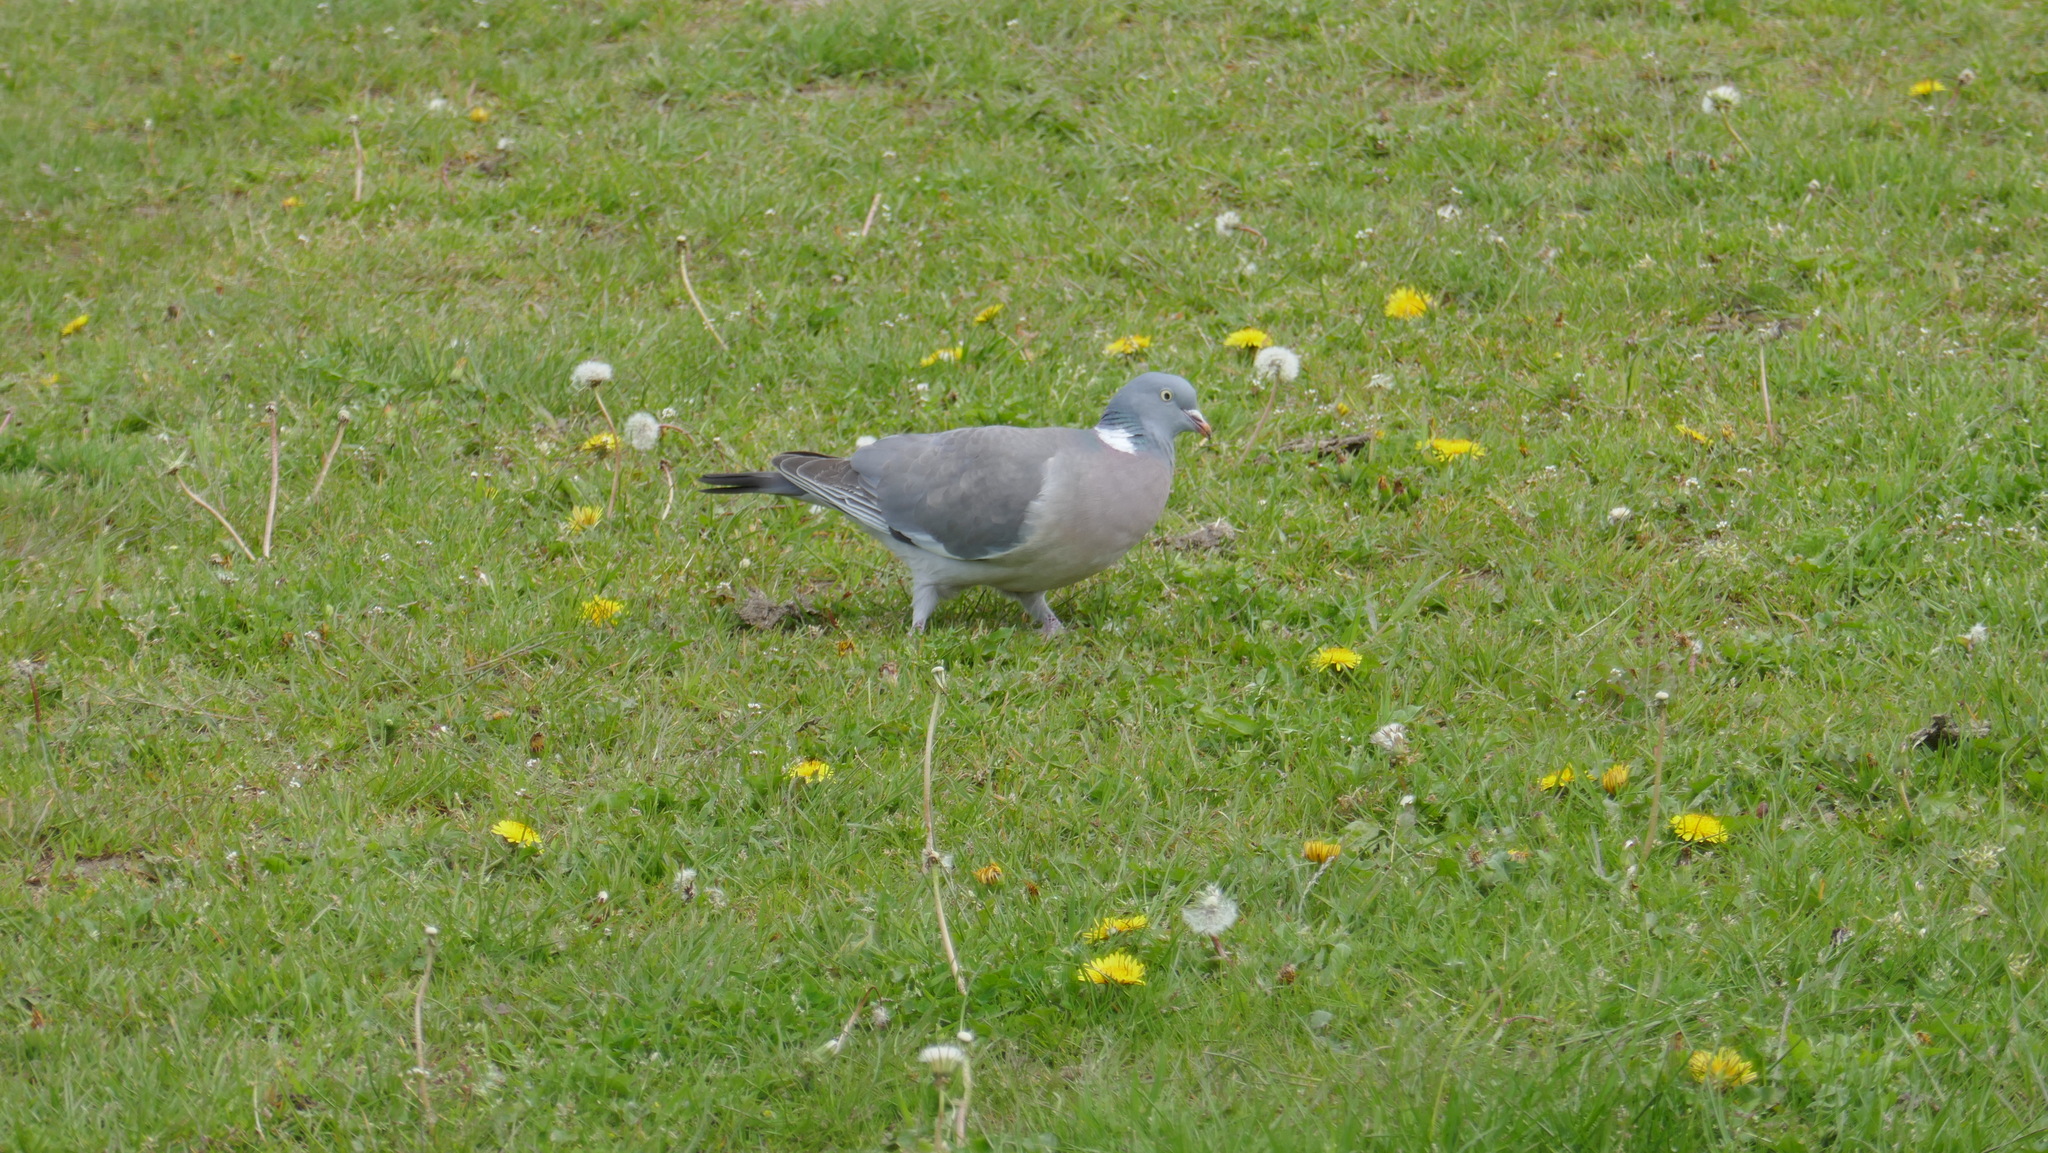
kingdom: Animalia
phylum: Chordata
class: Aves
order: Columbiformes
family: Columbidae
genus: Columba
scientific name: Columba palumbus
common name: Common wood pigeon
